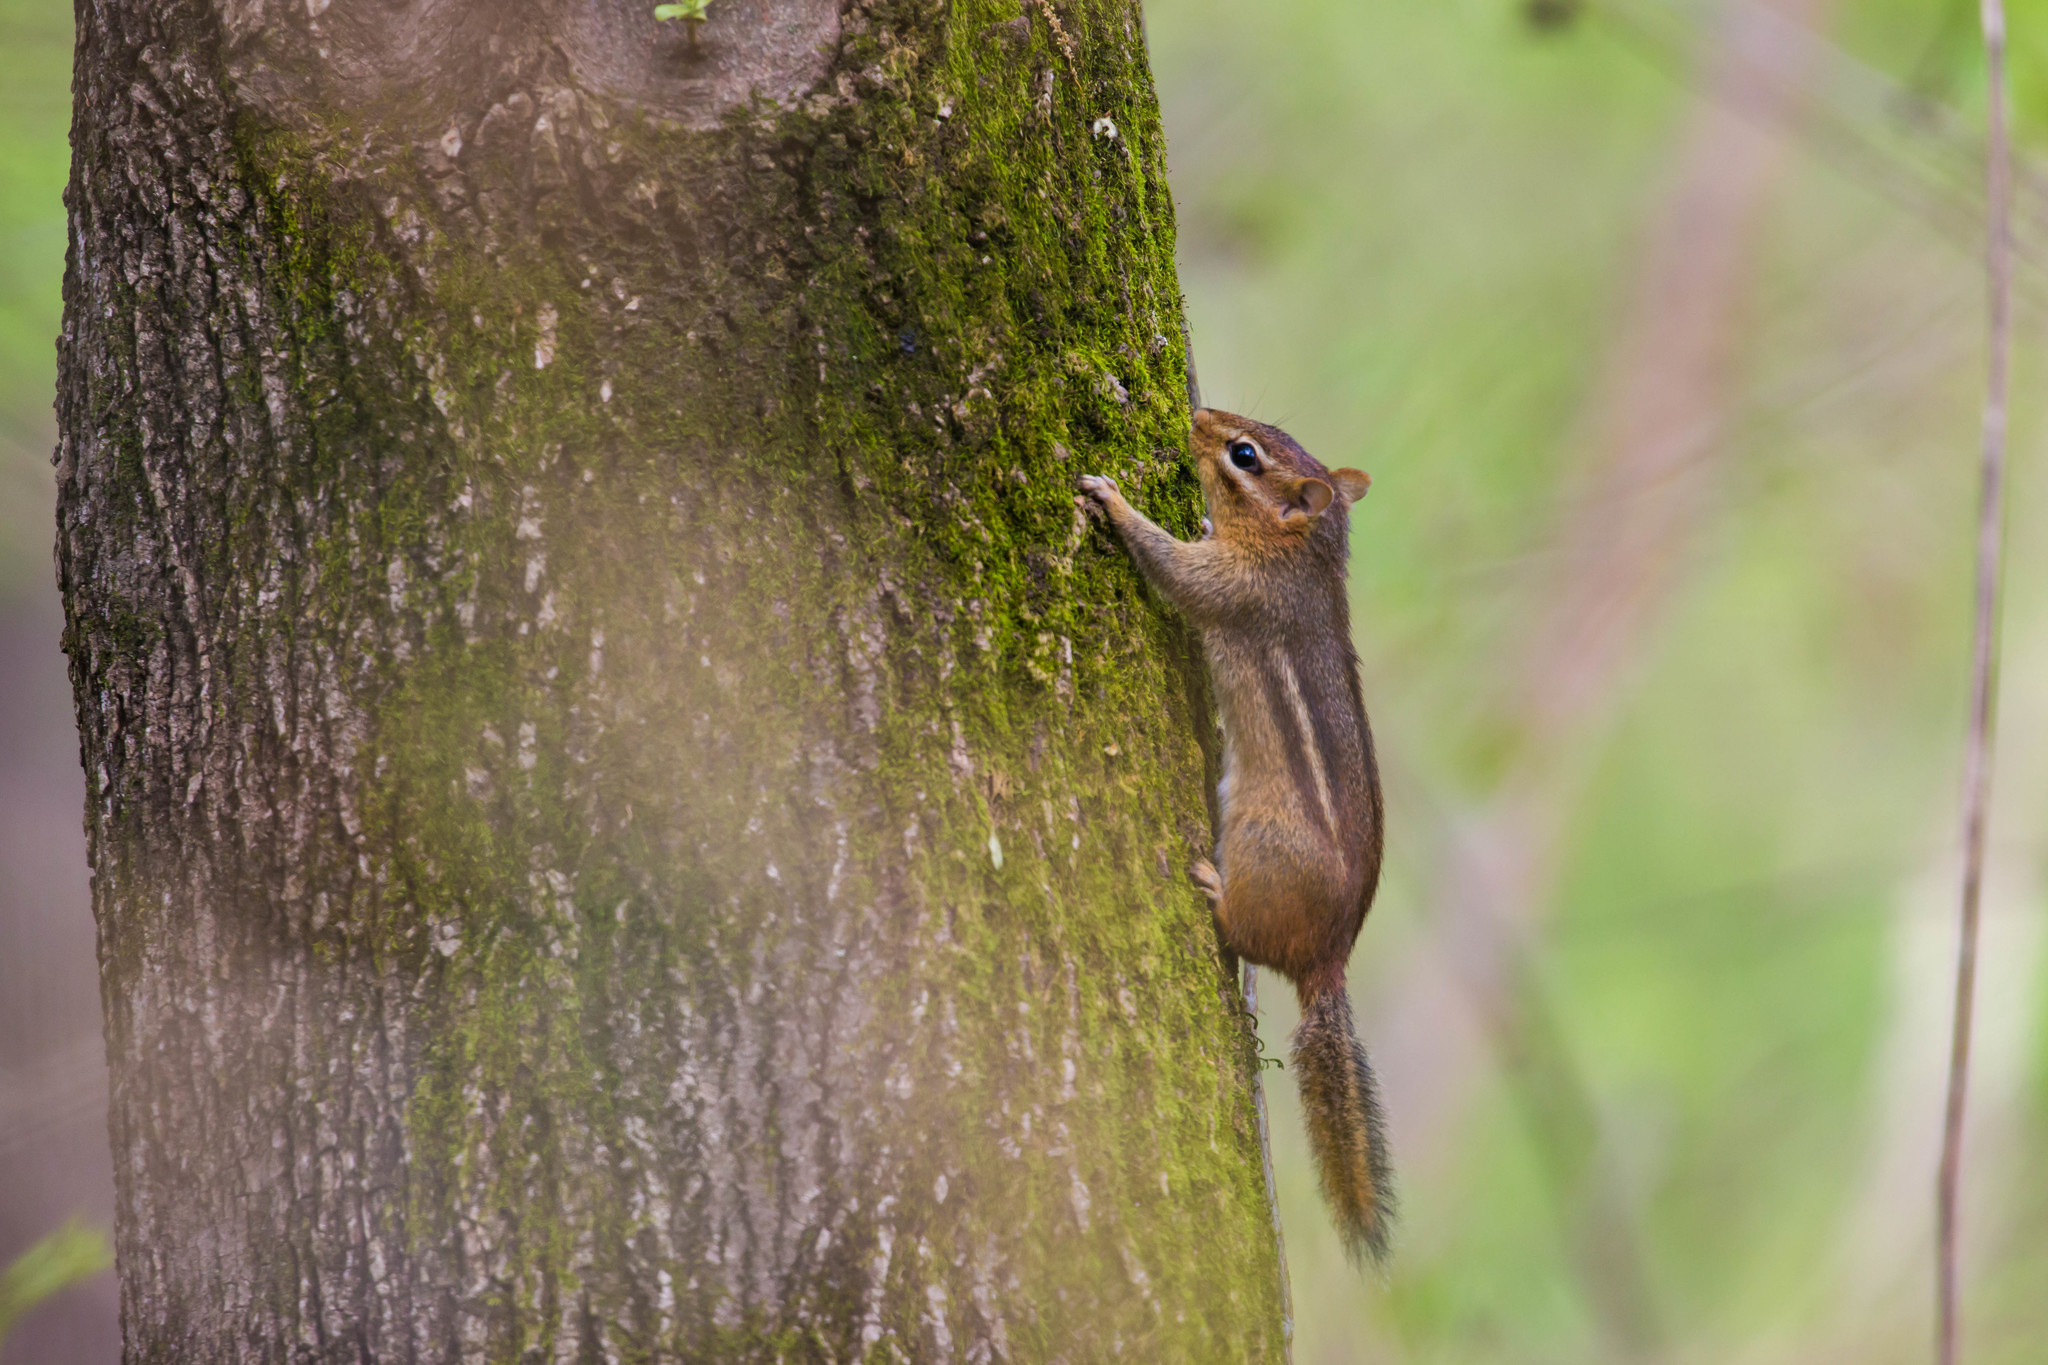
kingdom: Animalia
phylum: Chordata
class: Mammalia
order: Rodentia
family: Sciuridae
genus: Tamias
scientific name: Tamias striatus
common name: Eastern chipmunk
